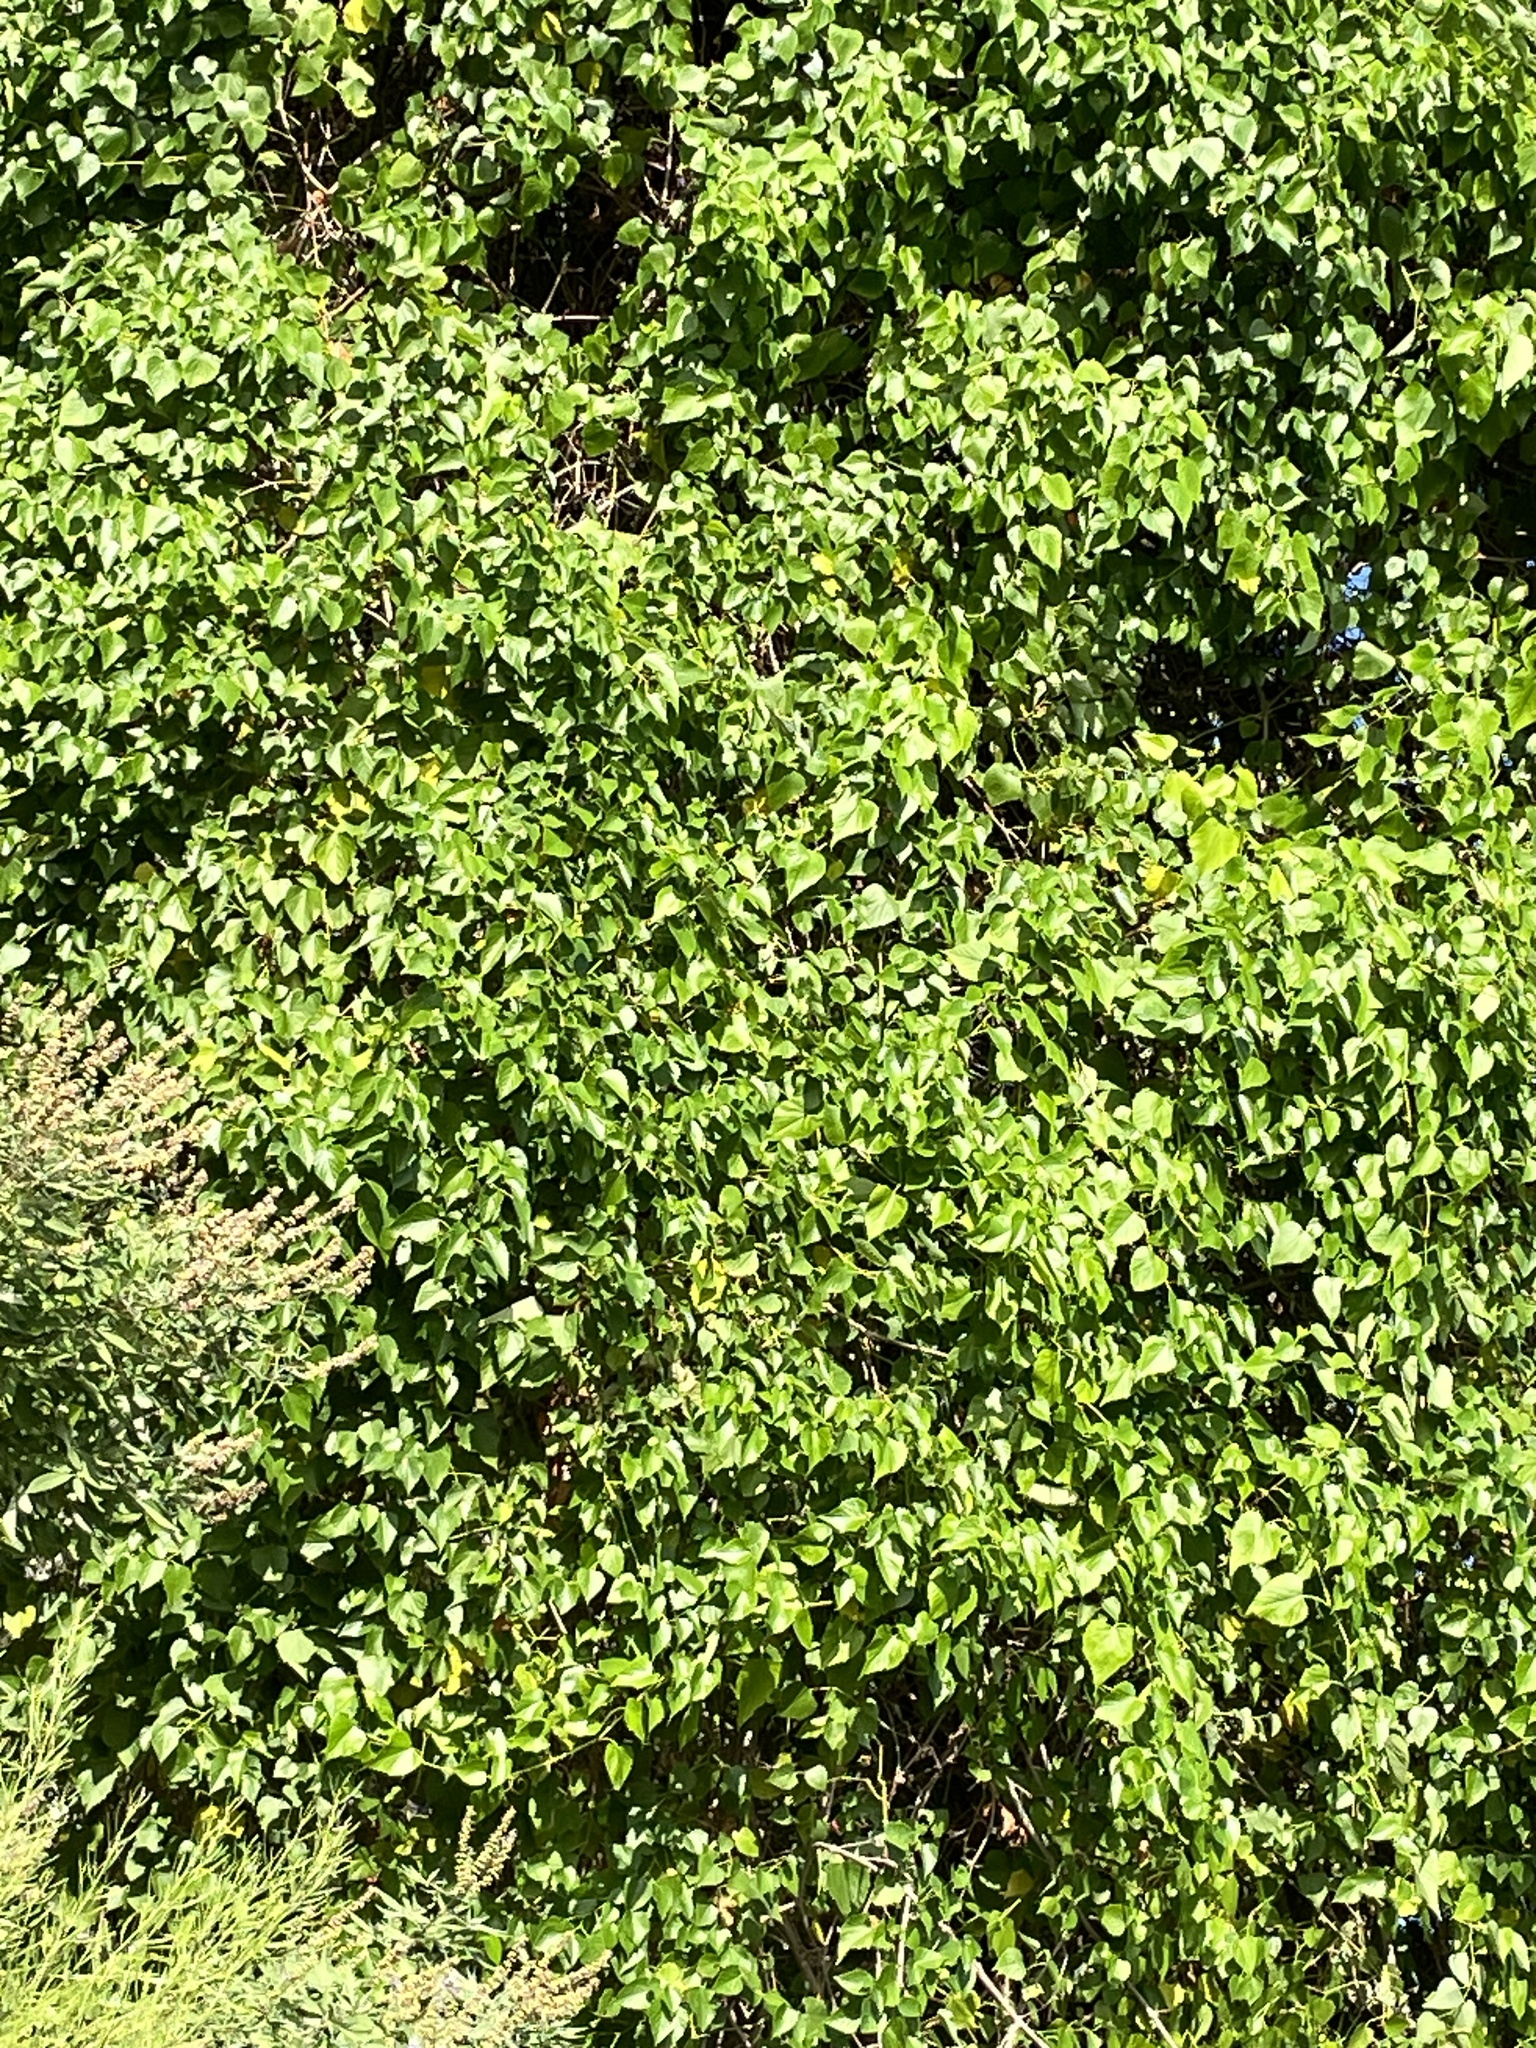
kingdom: Plantae
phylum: Tracheophyta
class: Magnoliopsida
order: Vitales
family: Vitaceae
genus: Ampelopsis
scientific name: Ampelopsis cordata
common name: Heart-leaf ampelopsis
